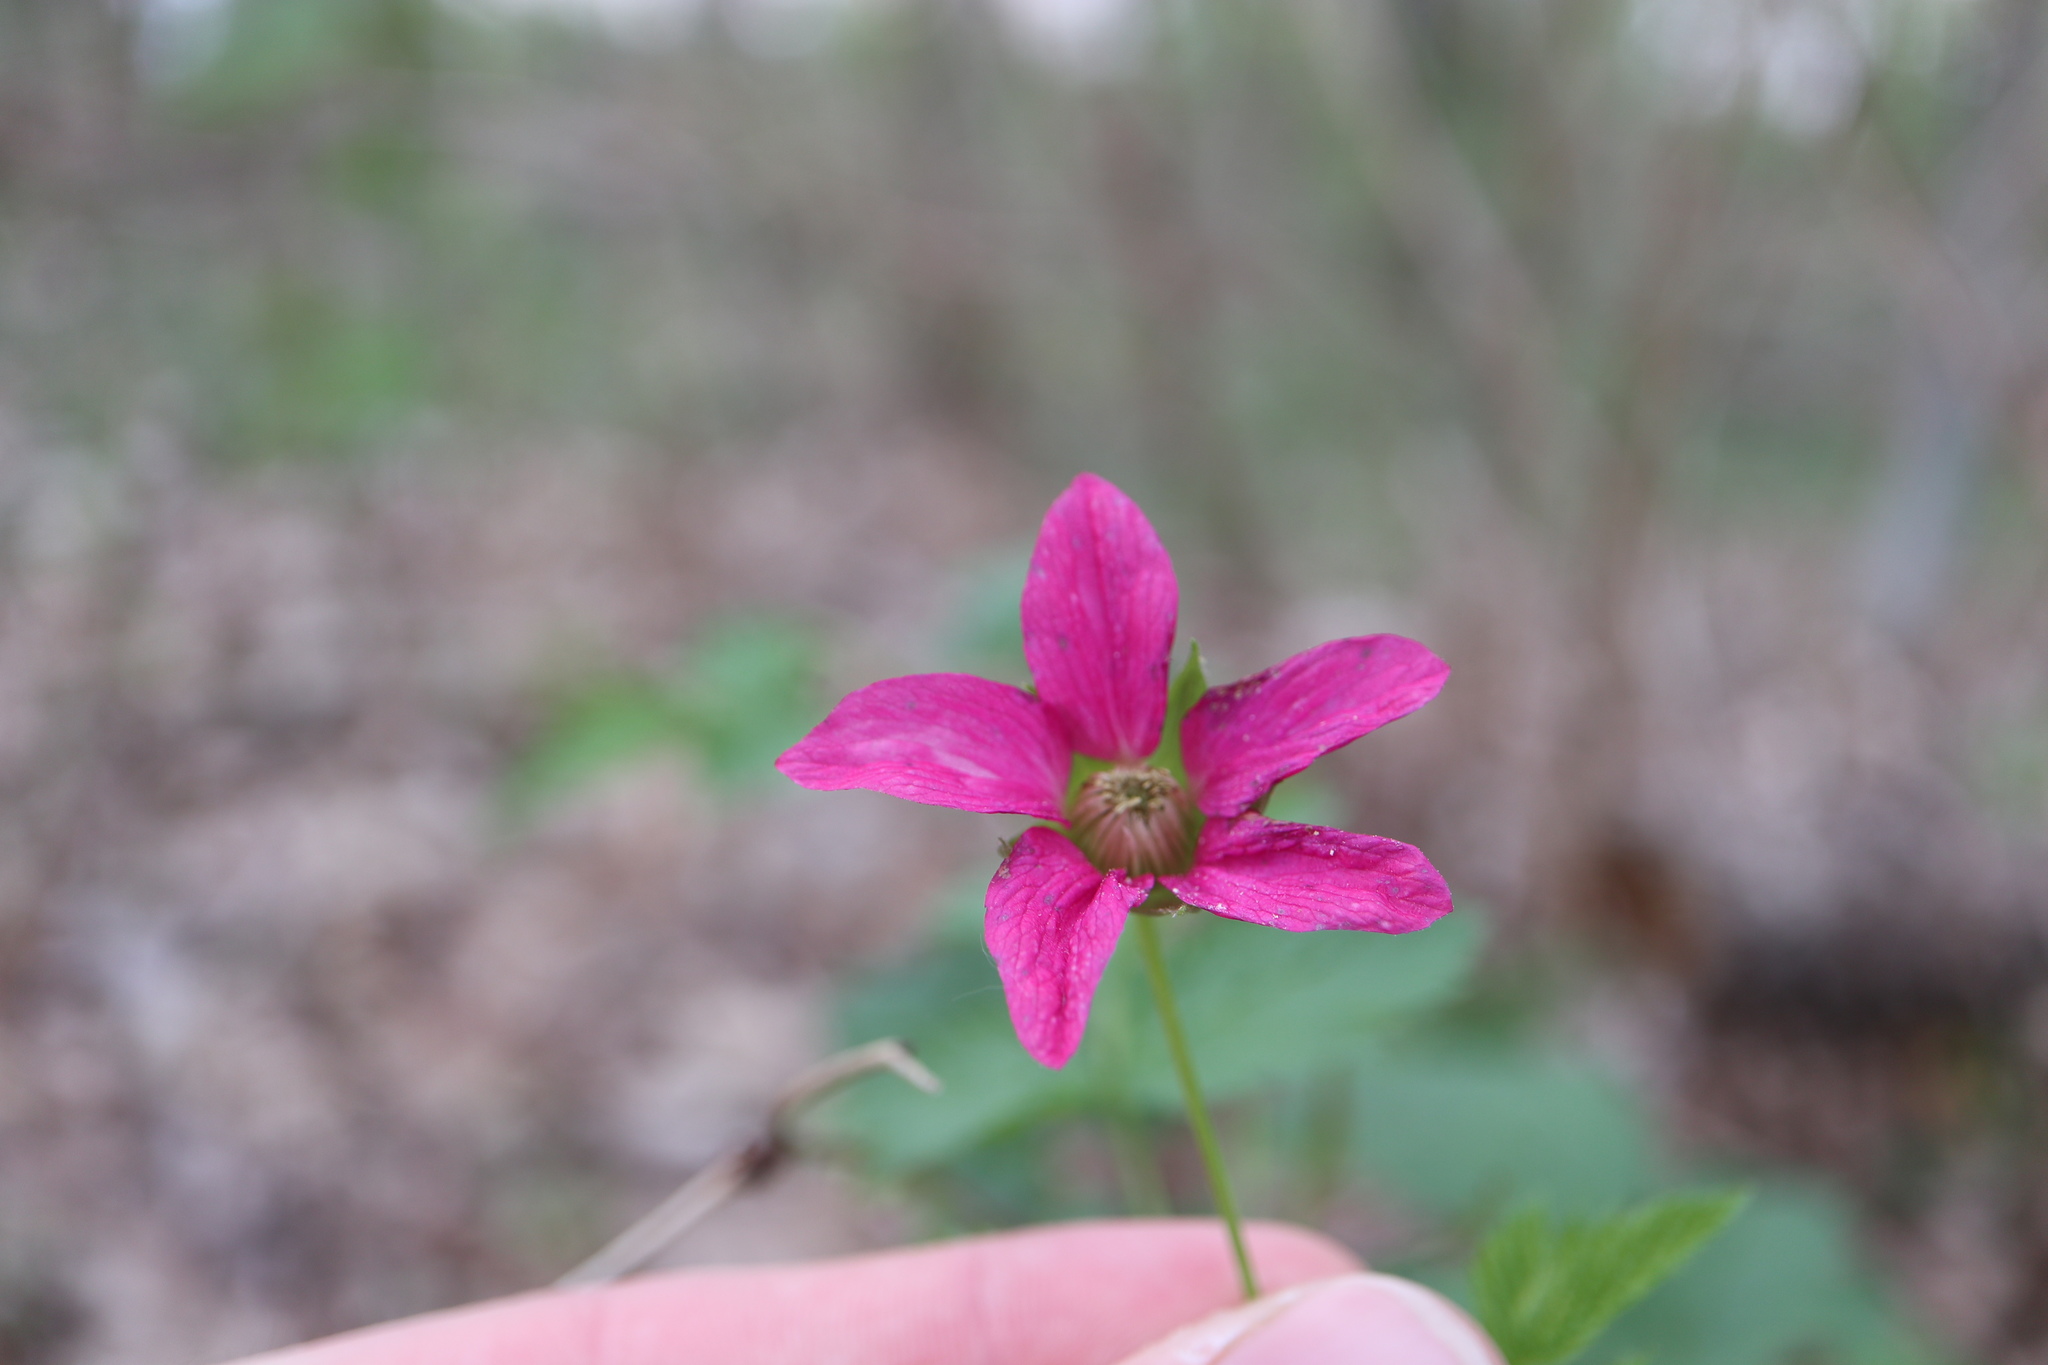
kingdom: Plantae
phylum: Tracheophyta
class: Magnoliopsida
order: Rosales
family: Rosaceae
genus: Rubus
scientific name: Rubus spectabilis
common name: Salmonberry
